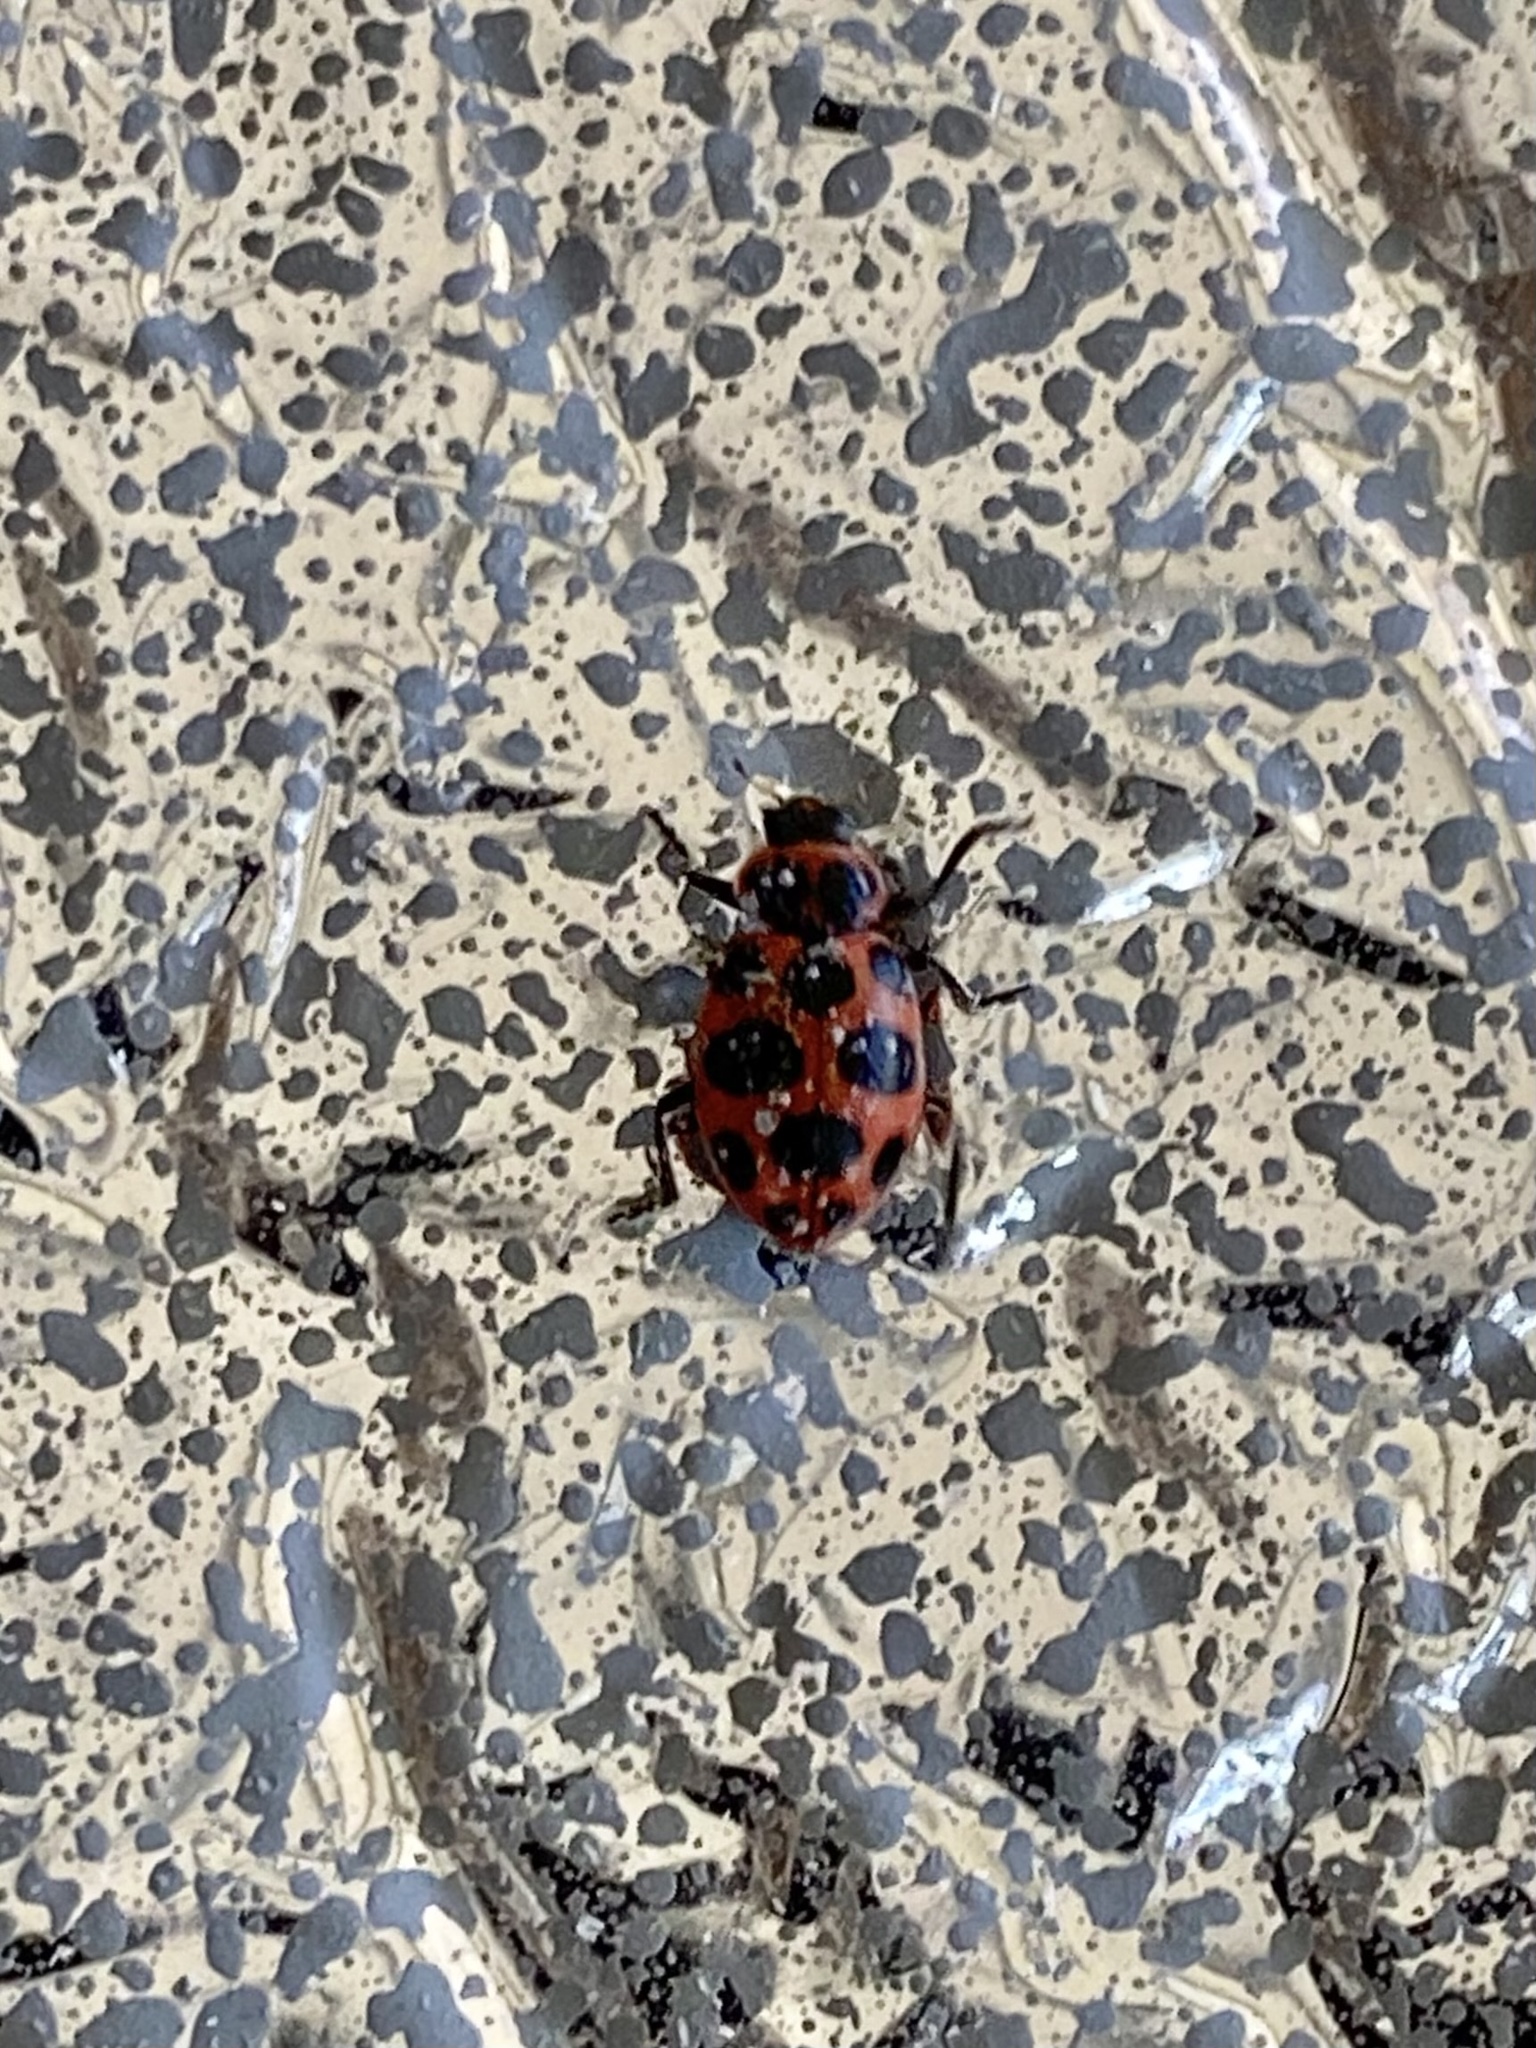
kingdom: Animalia
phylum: Arthropoda
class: Insecta
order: Coleoptera
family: Coccinellidae
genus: Coleomegilla
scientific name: Coleomegilla maculata
